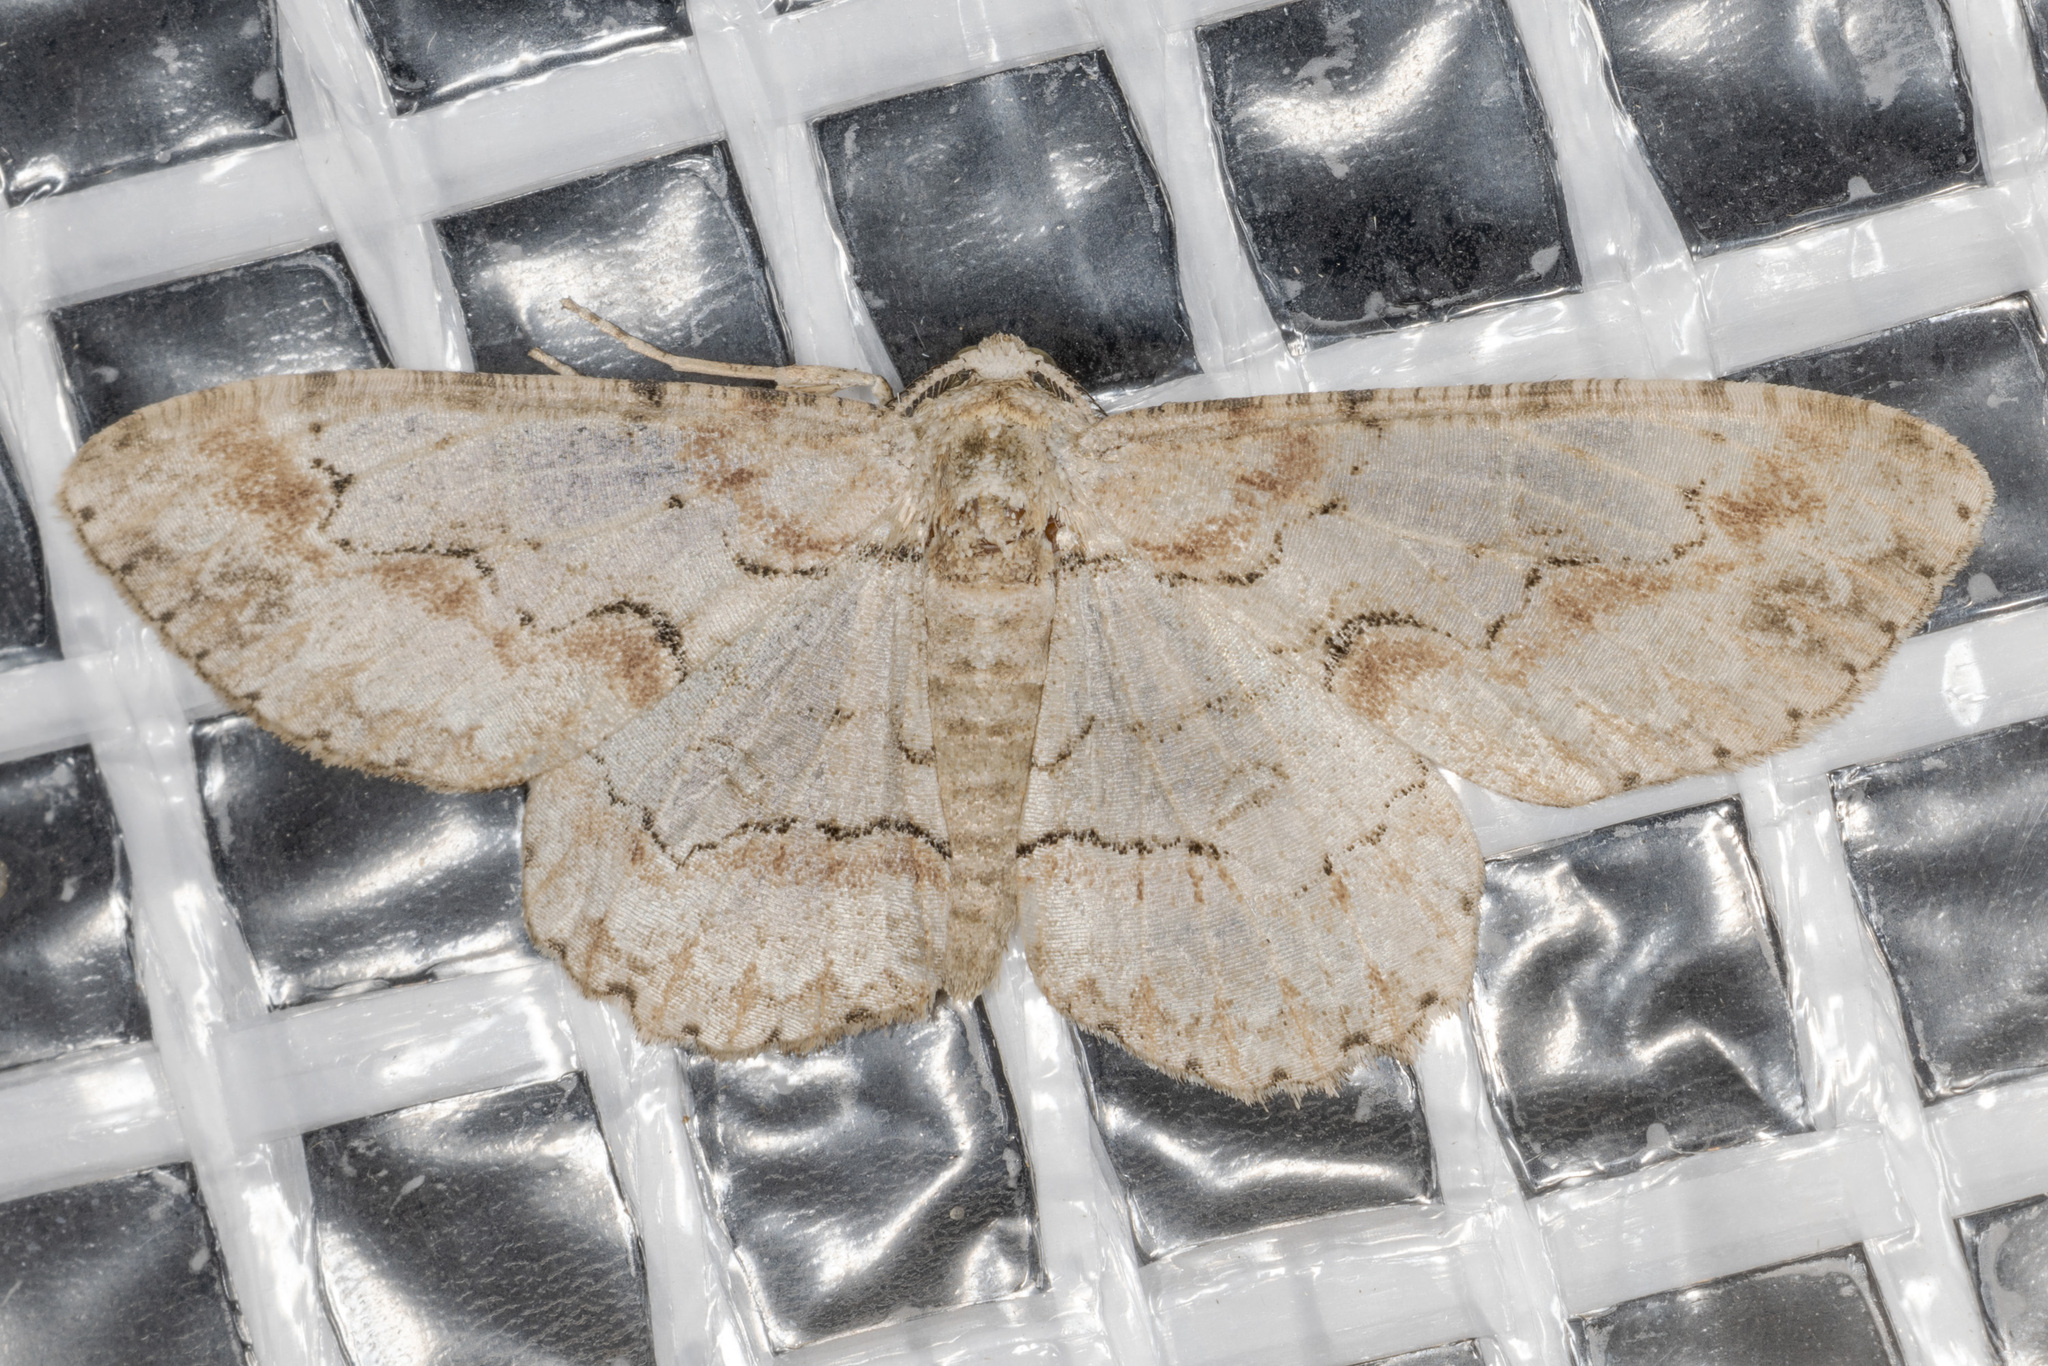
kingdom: Animalia
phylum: Arthropoda
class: Insecta
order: Lepidoptera
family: Geometridae
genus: Iridopsis
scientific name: Iridopsis defectaria
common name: Brown-shaded gray
